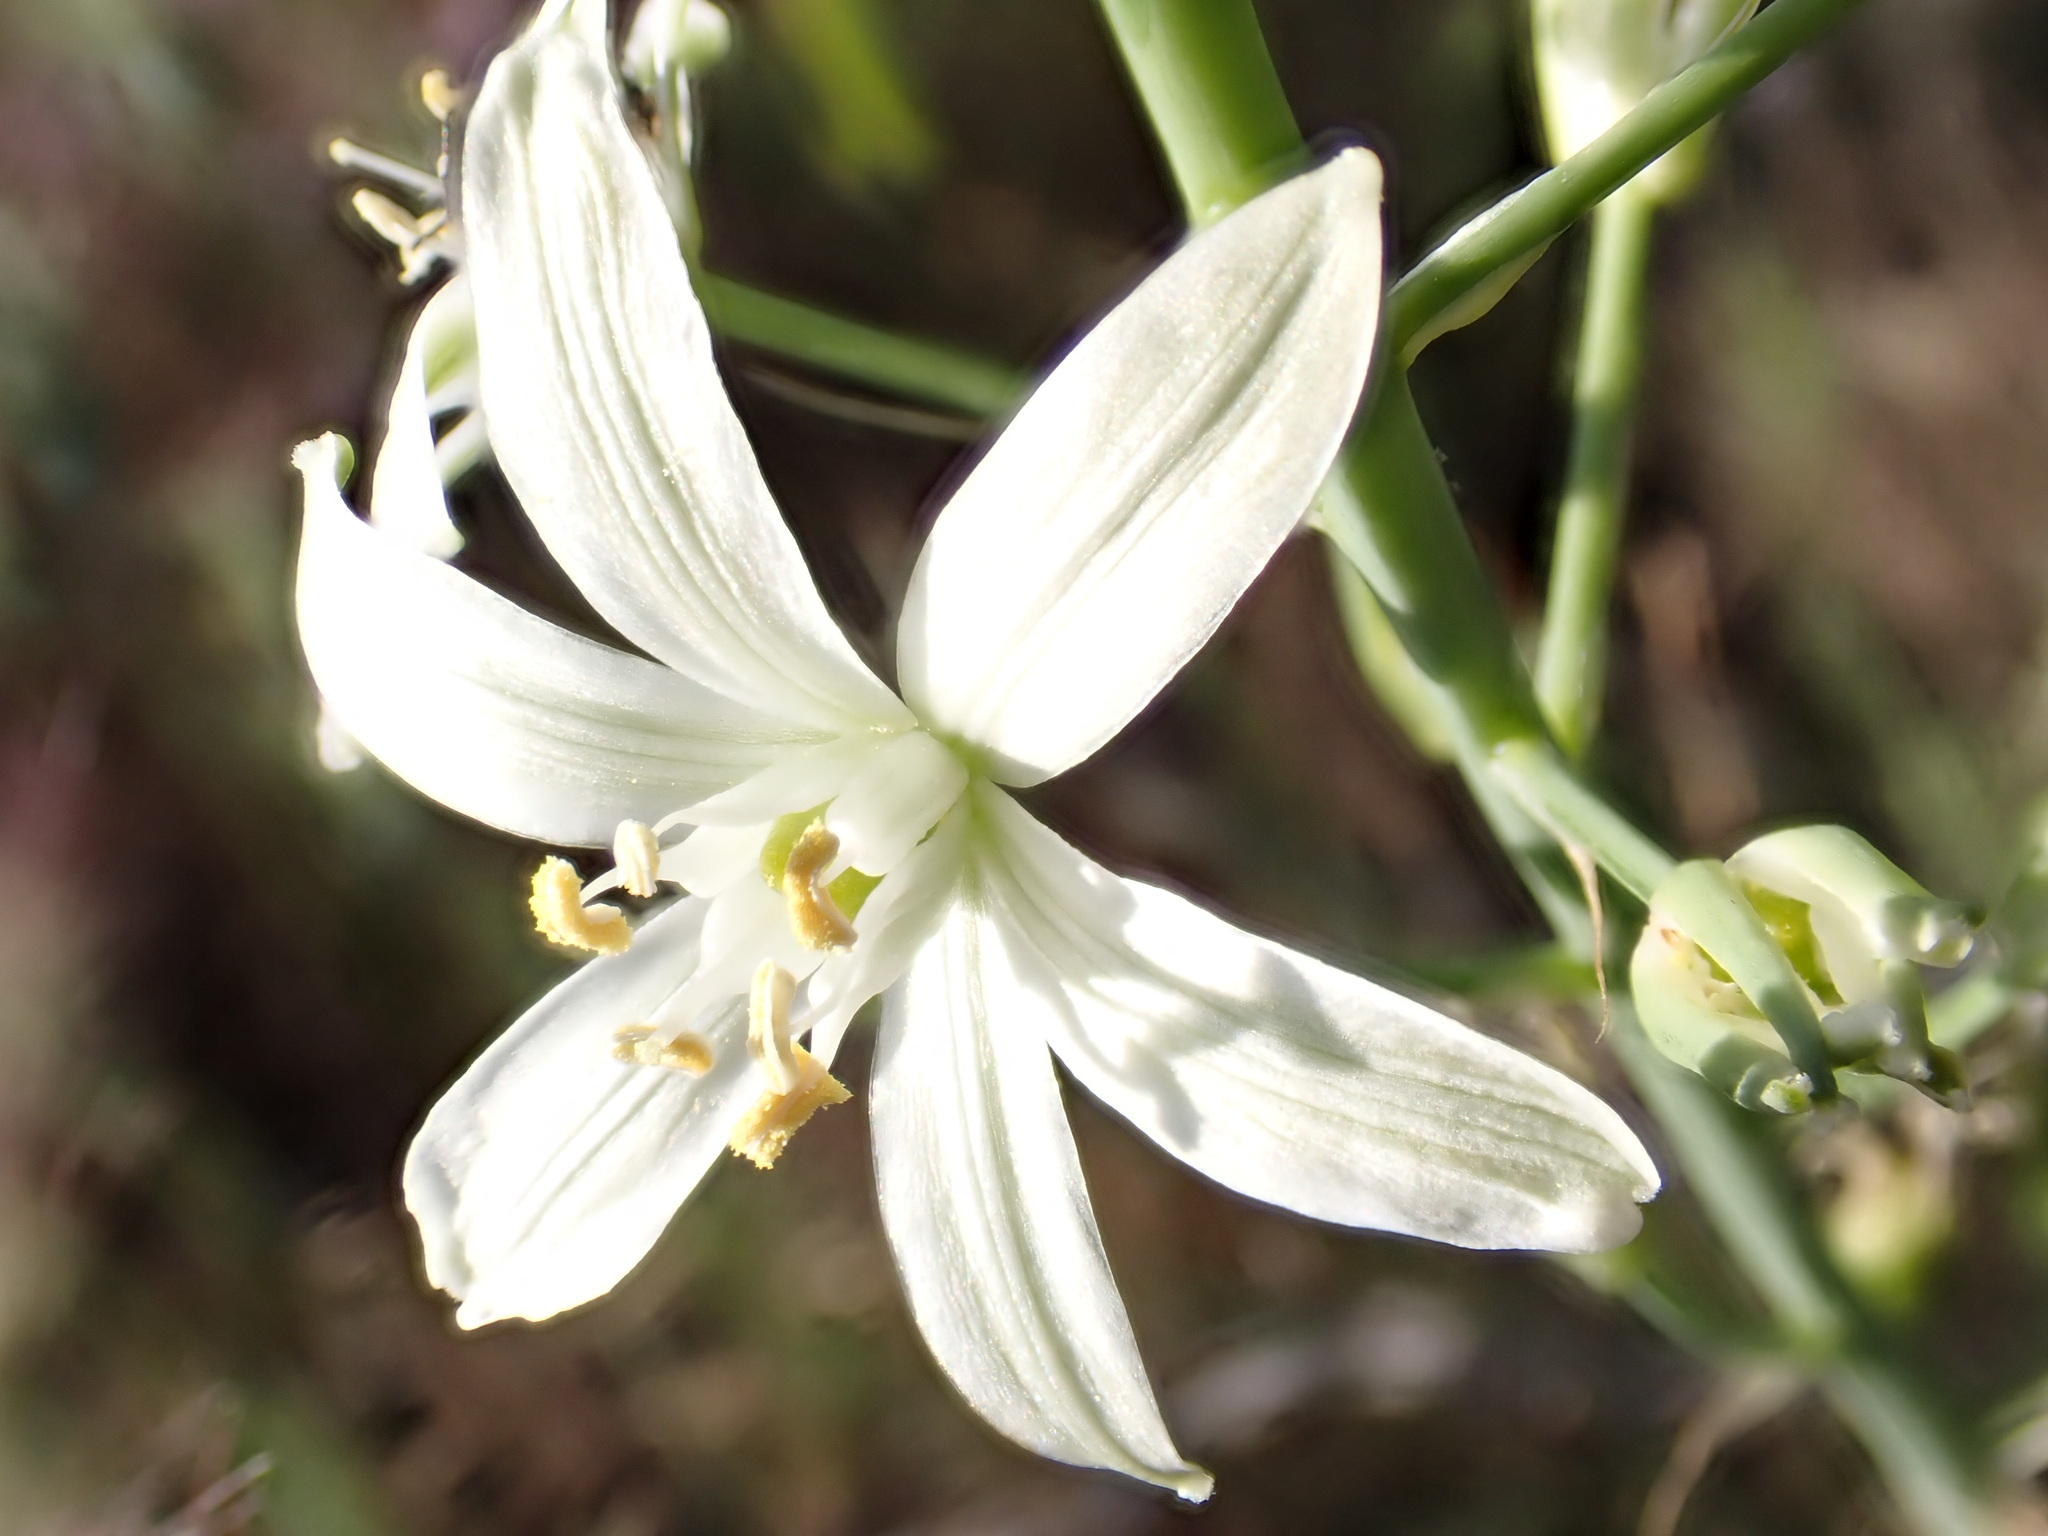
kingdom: Plantae
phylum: Tracheophyta
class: Liliopsida
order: Asparagales
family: Asparagaceae
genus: Ornithogalum
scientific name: Ornithogalum narbonense
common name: Bath-asparagus
